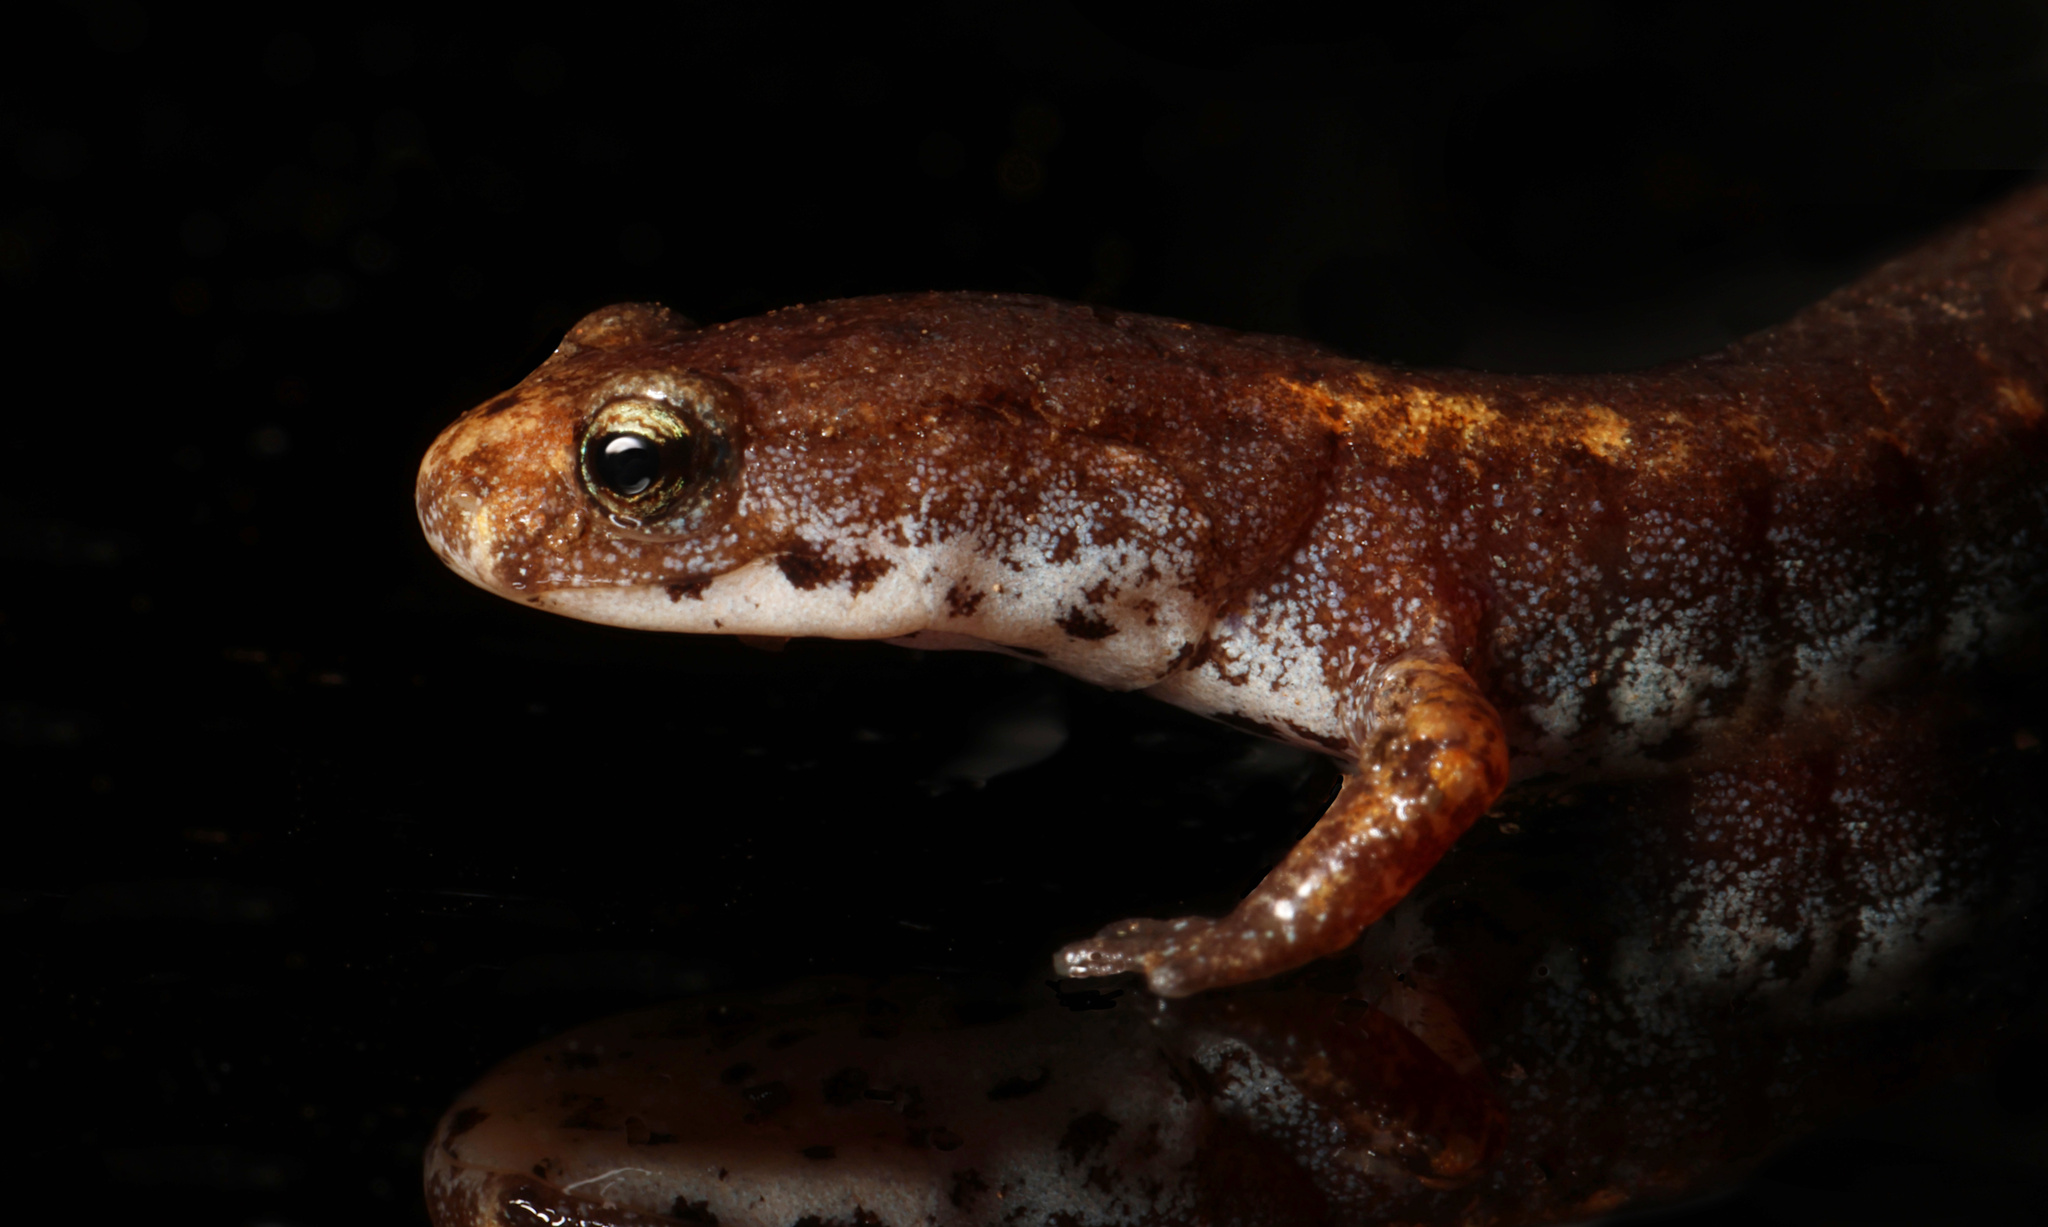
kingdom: Animalia
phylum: Chordata
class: Amphibia
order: Caudata
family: Plethodontidae
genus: Hemidactylium
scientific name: Hemidactylium scutatum
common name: Four-toed salamander
